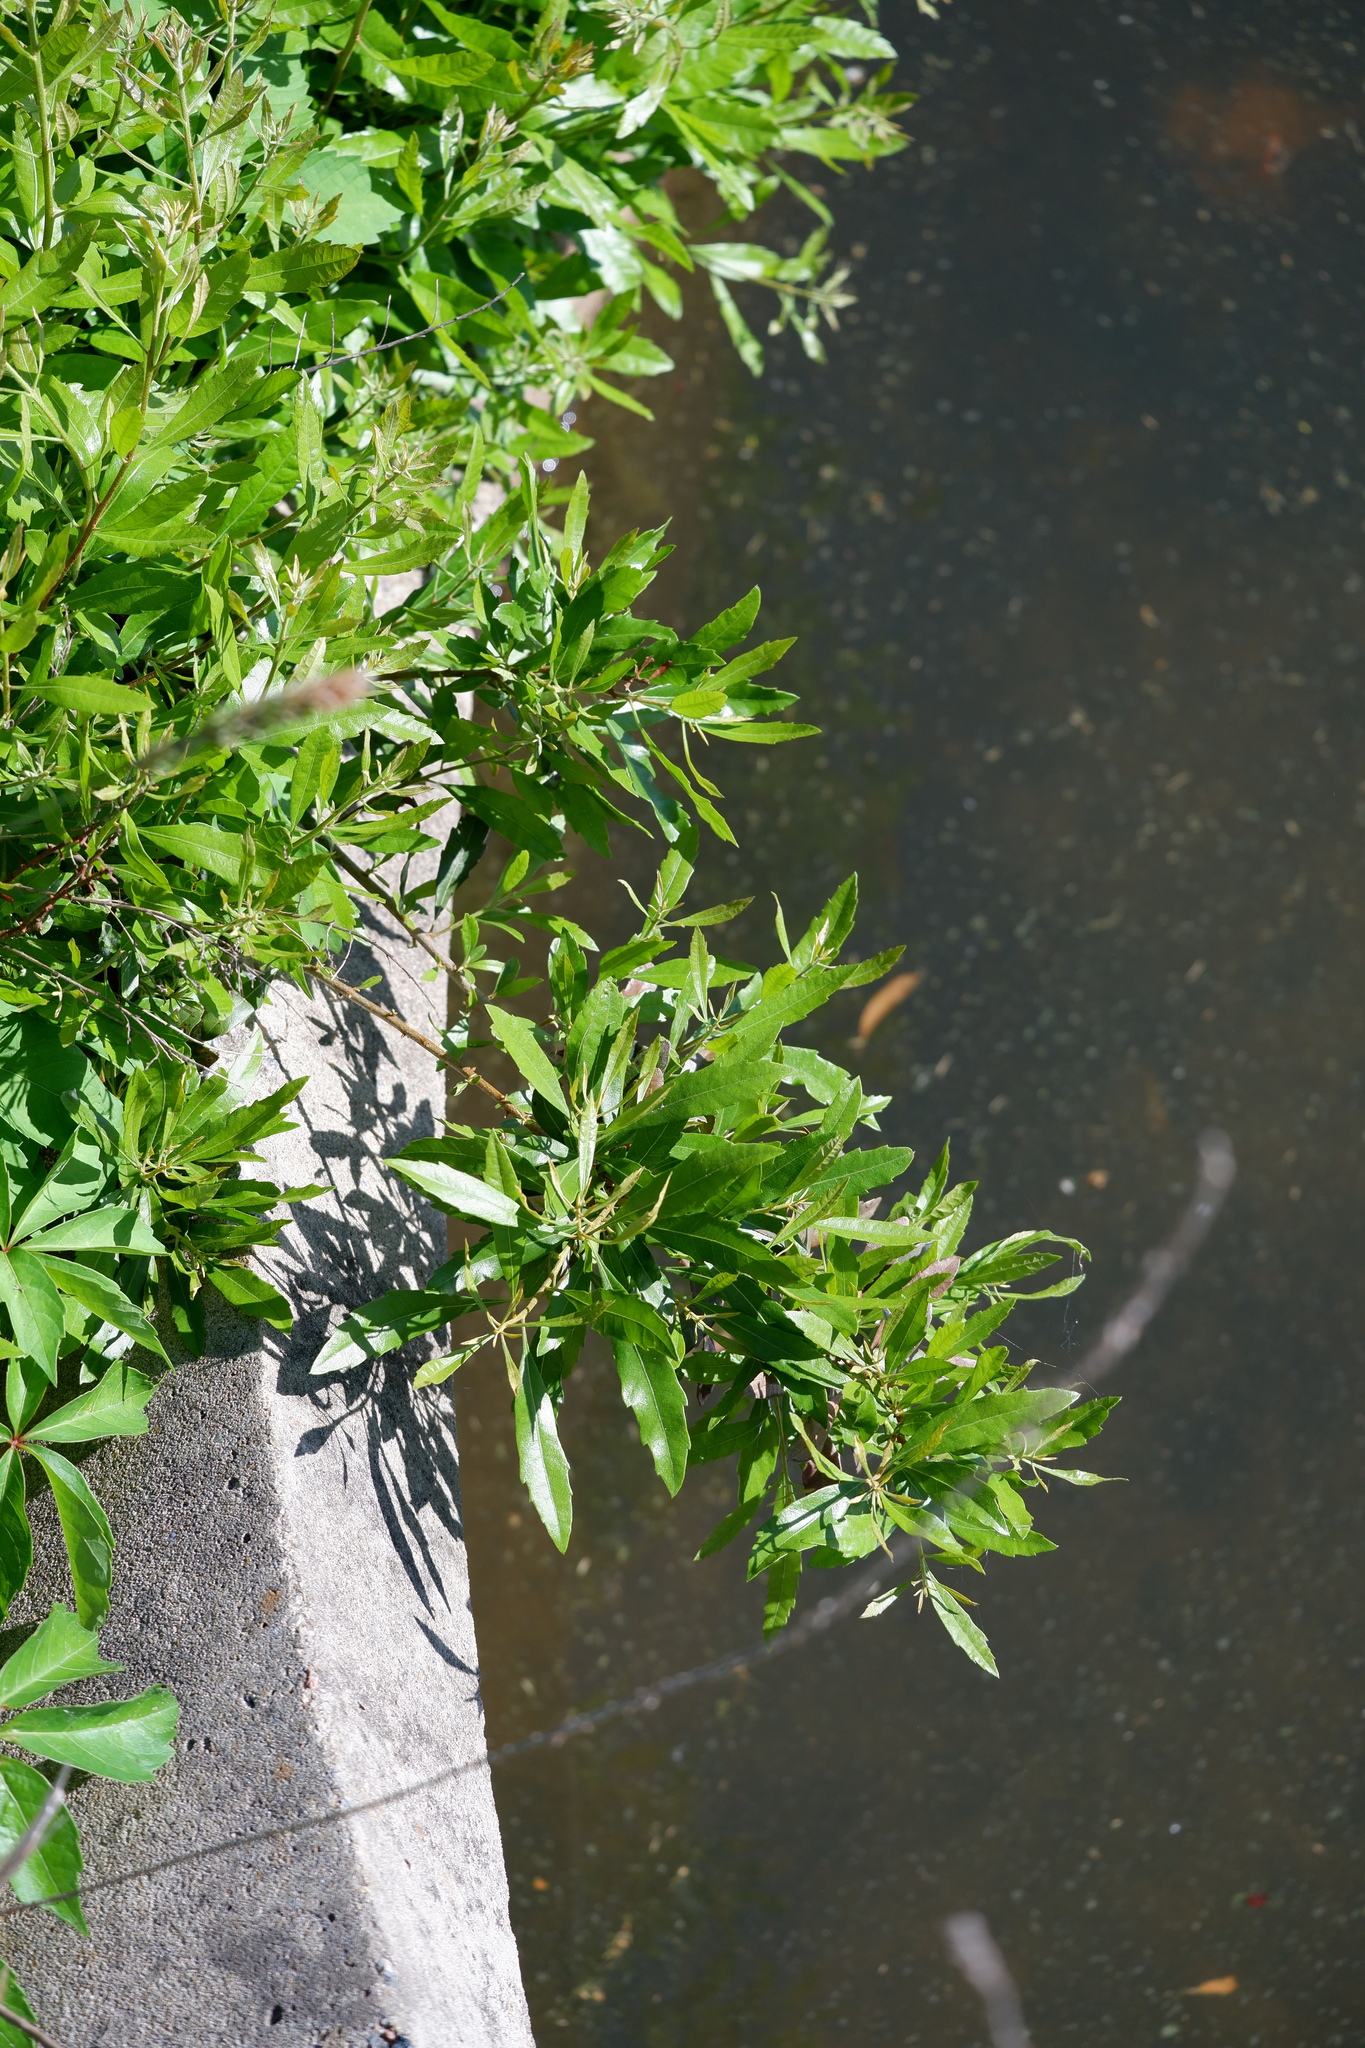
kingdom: Plantae
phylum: Tracheophyta
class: Magnoliopsida
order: Fagales
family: Myricaceae
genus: Morella
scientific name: Morella cerifera
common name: Wax myrtle
